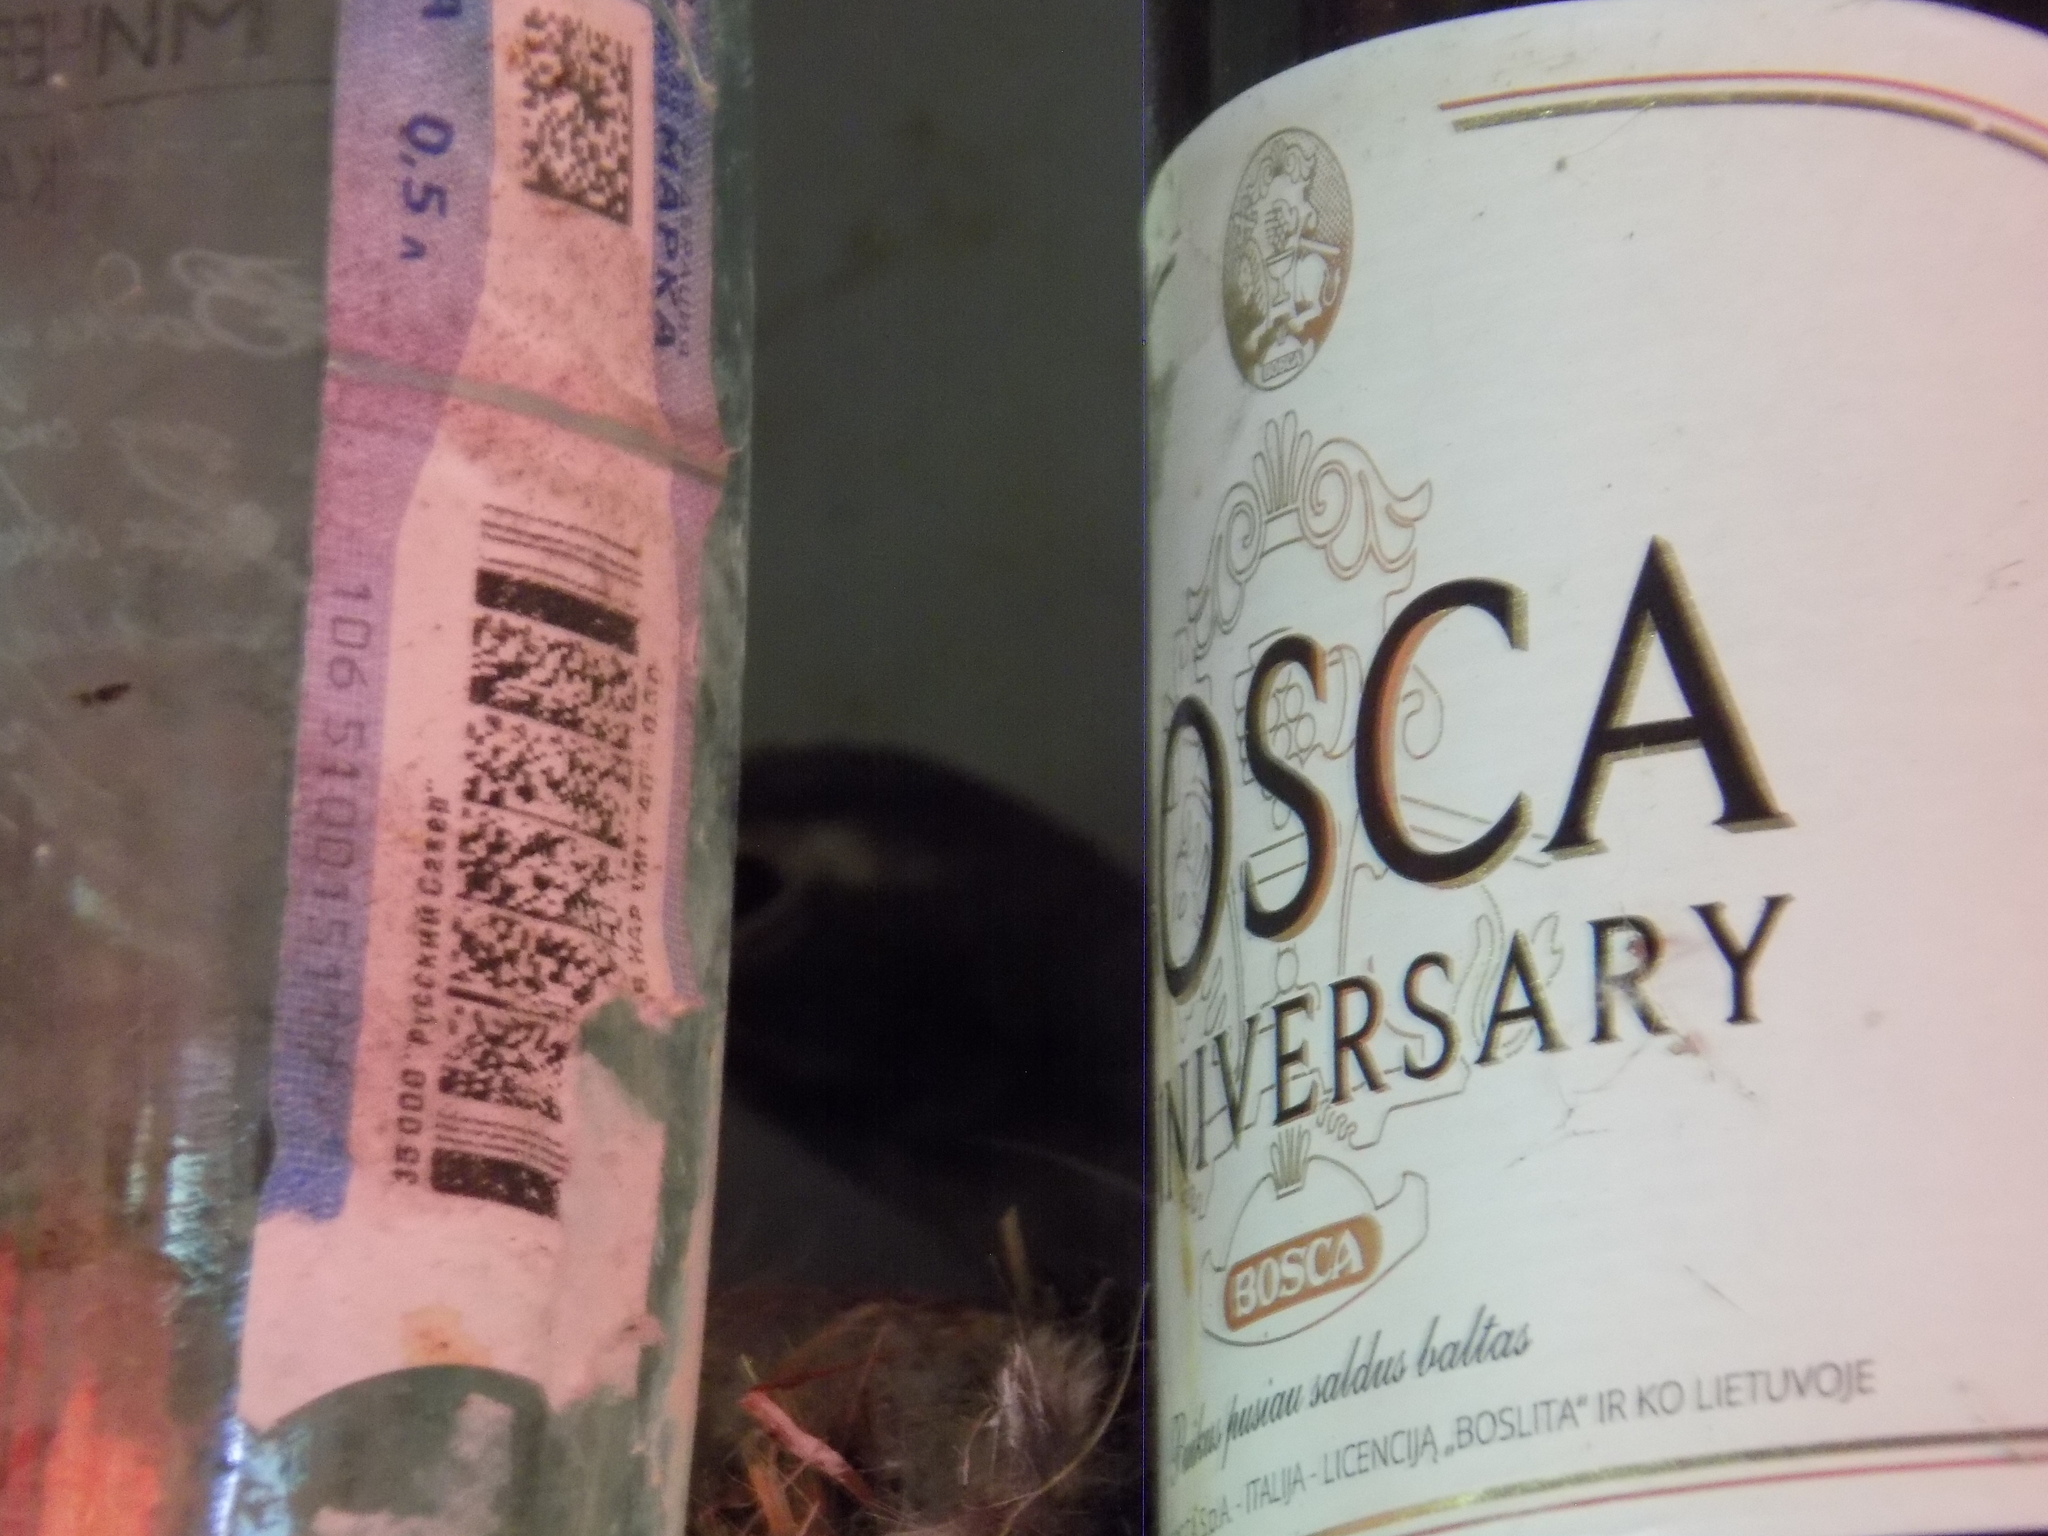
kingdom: Animalia
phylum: Chordata
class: Aves
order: Passeriformes
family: Motacillidae
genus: Motacilla
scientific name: Motacilla alba
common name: White wagtail
